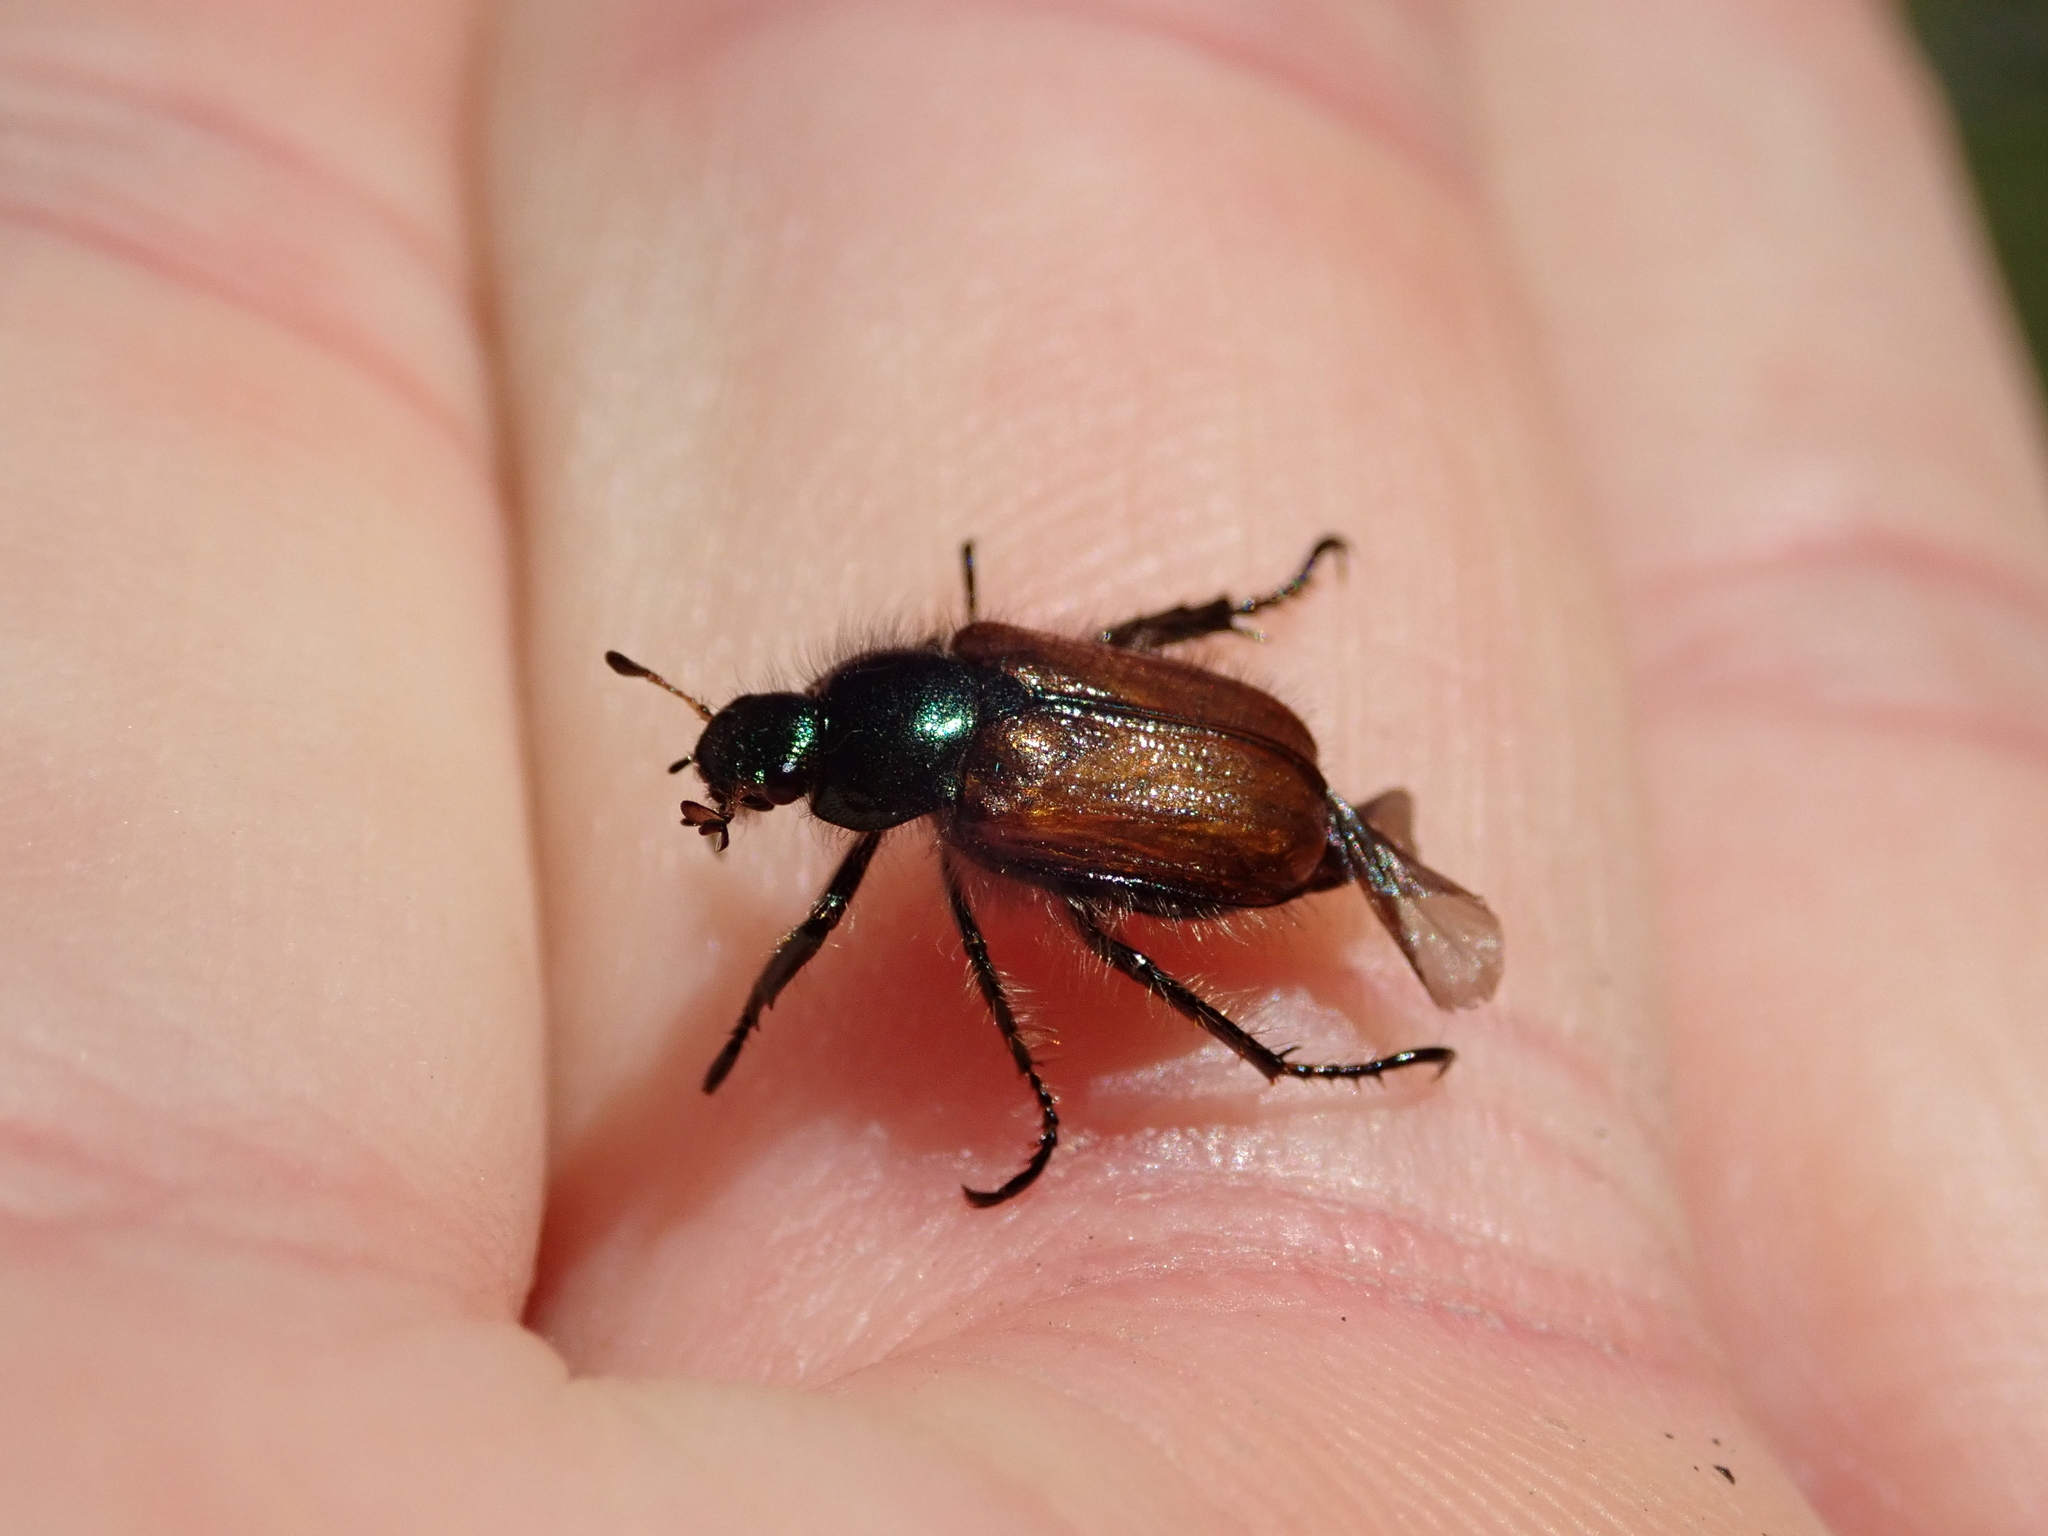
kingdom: Animalia
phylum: Arthropoda
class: Insecta
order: Coleoptera
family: Scarabaeidae
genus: Phyllopertha
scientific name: Phyllopertha horticola
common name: Garden chafer
